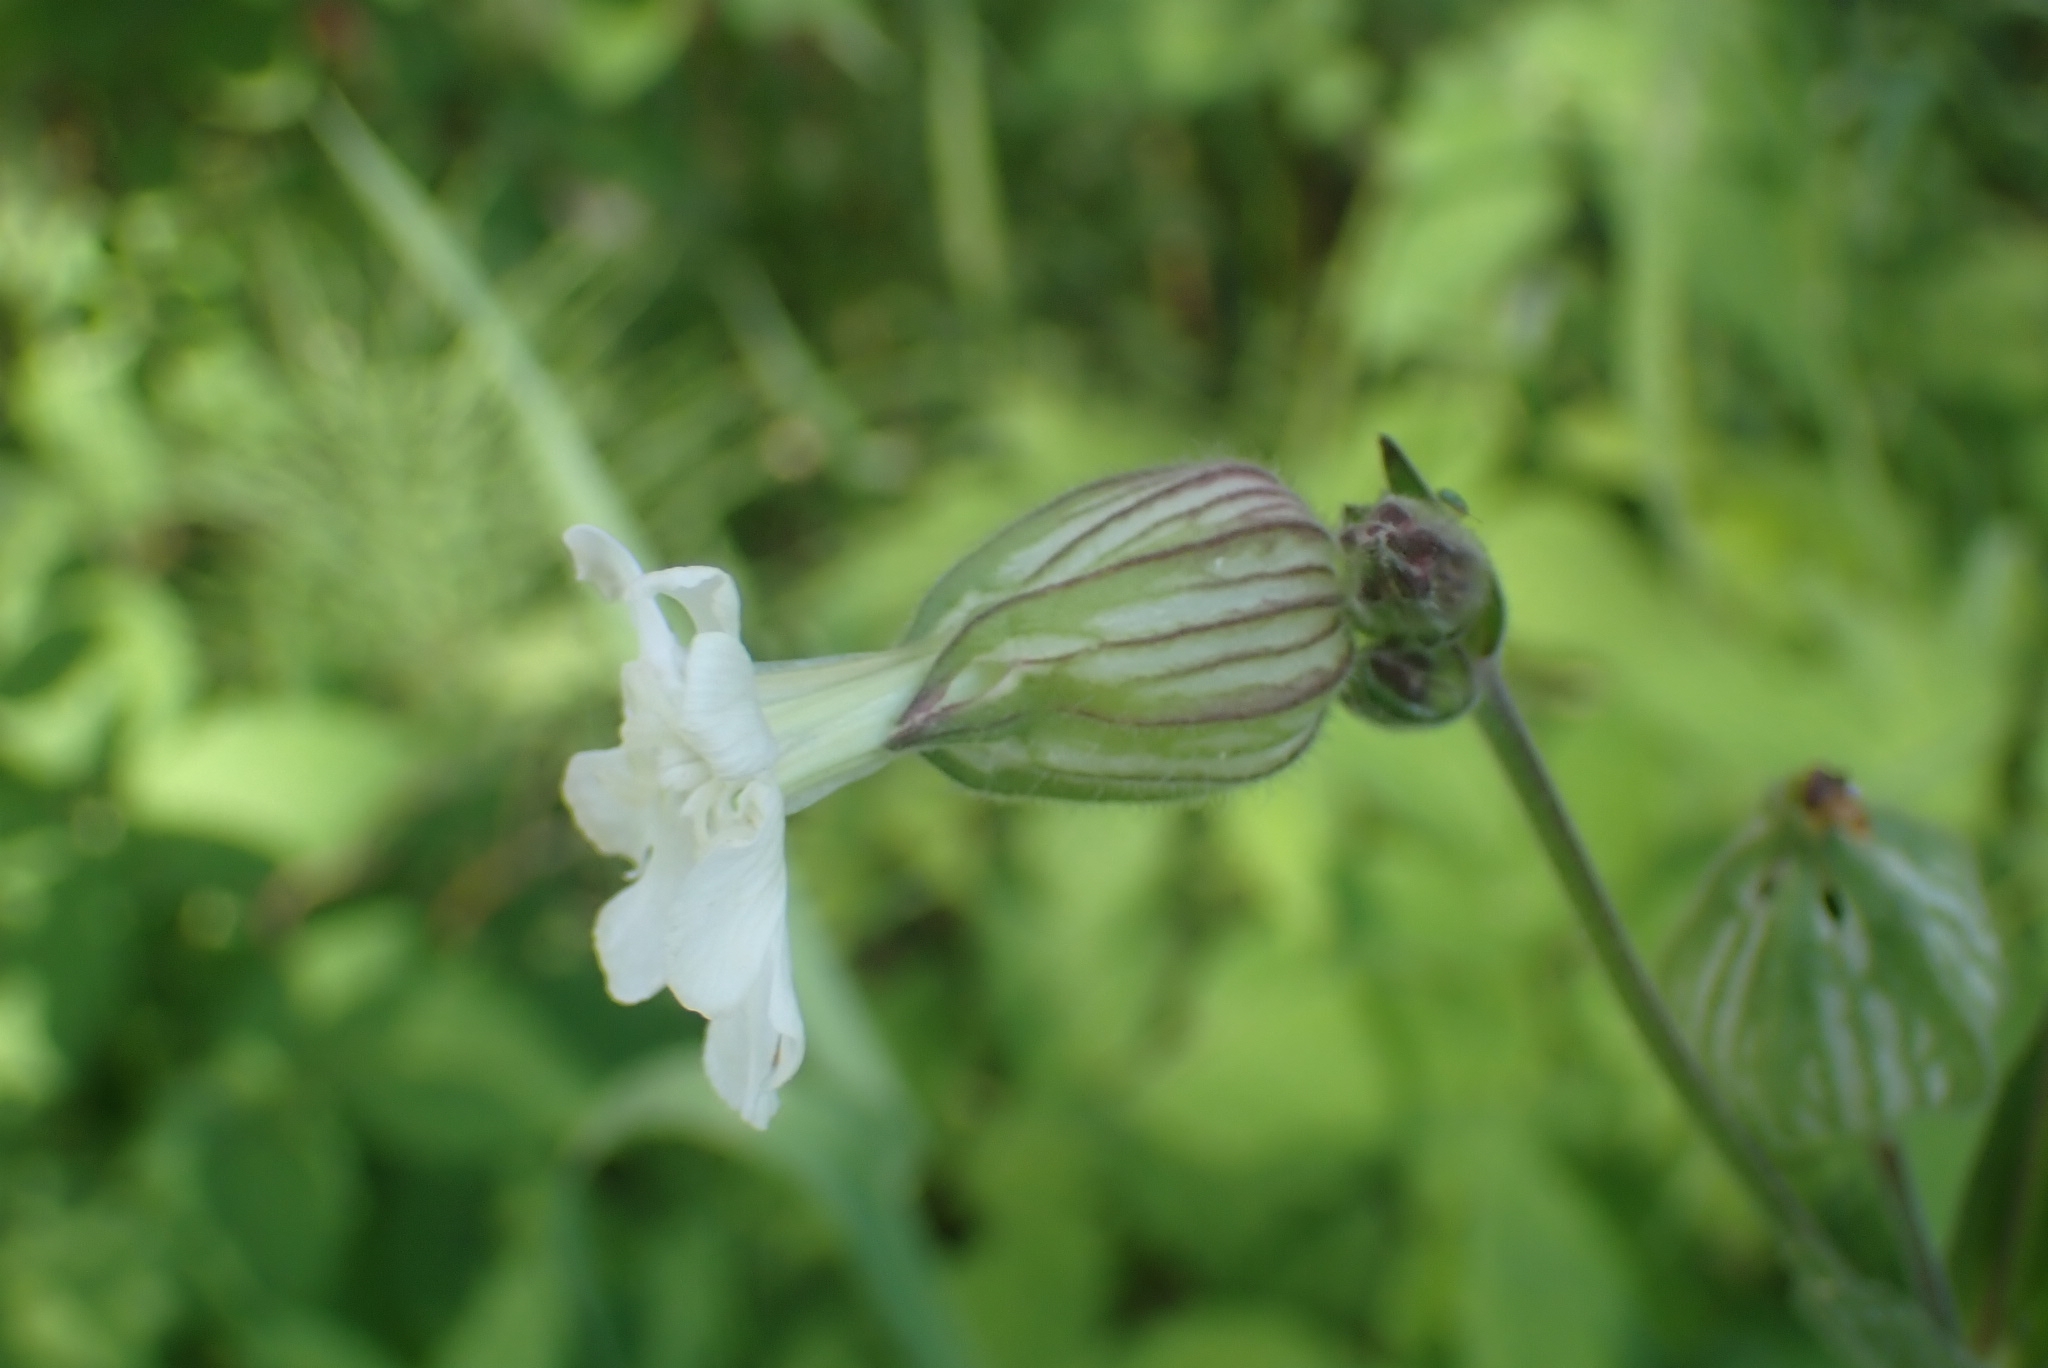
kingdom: Plantae
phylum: Tracheophyta
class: Magnoliopsida
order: Caryophyllales
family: Caryophyllaceae
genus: Silene
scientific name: Silene latifolia
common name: White campion
